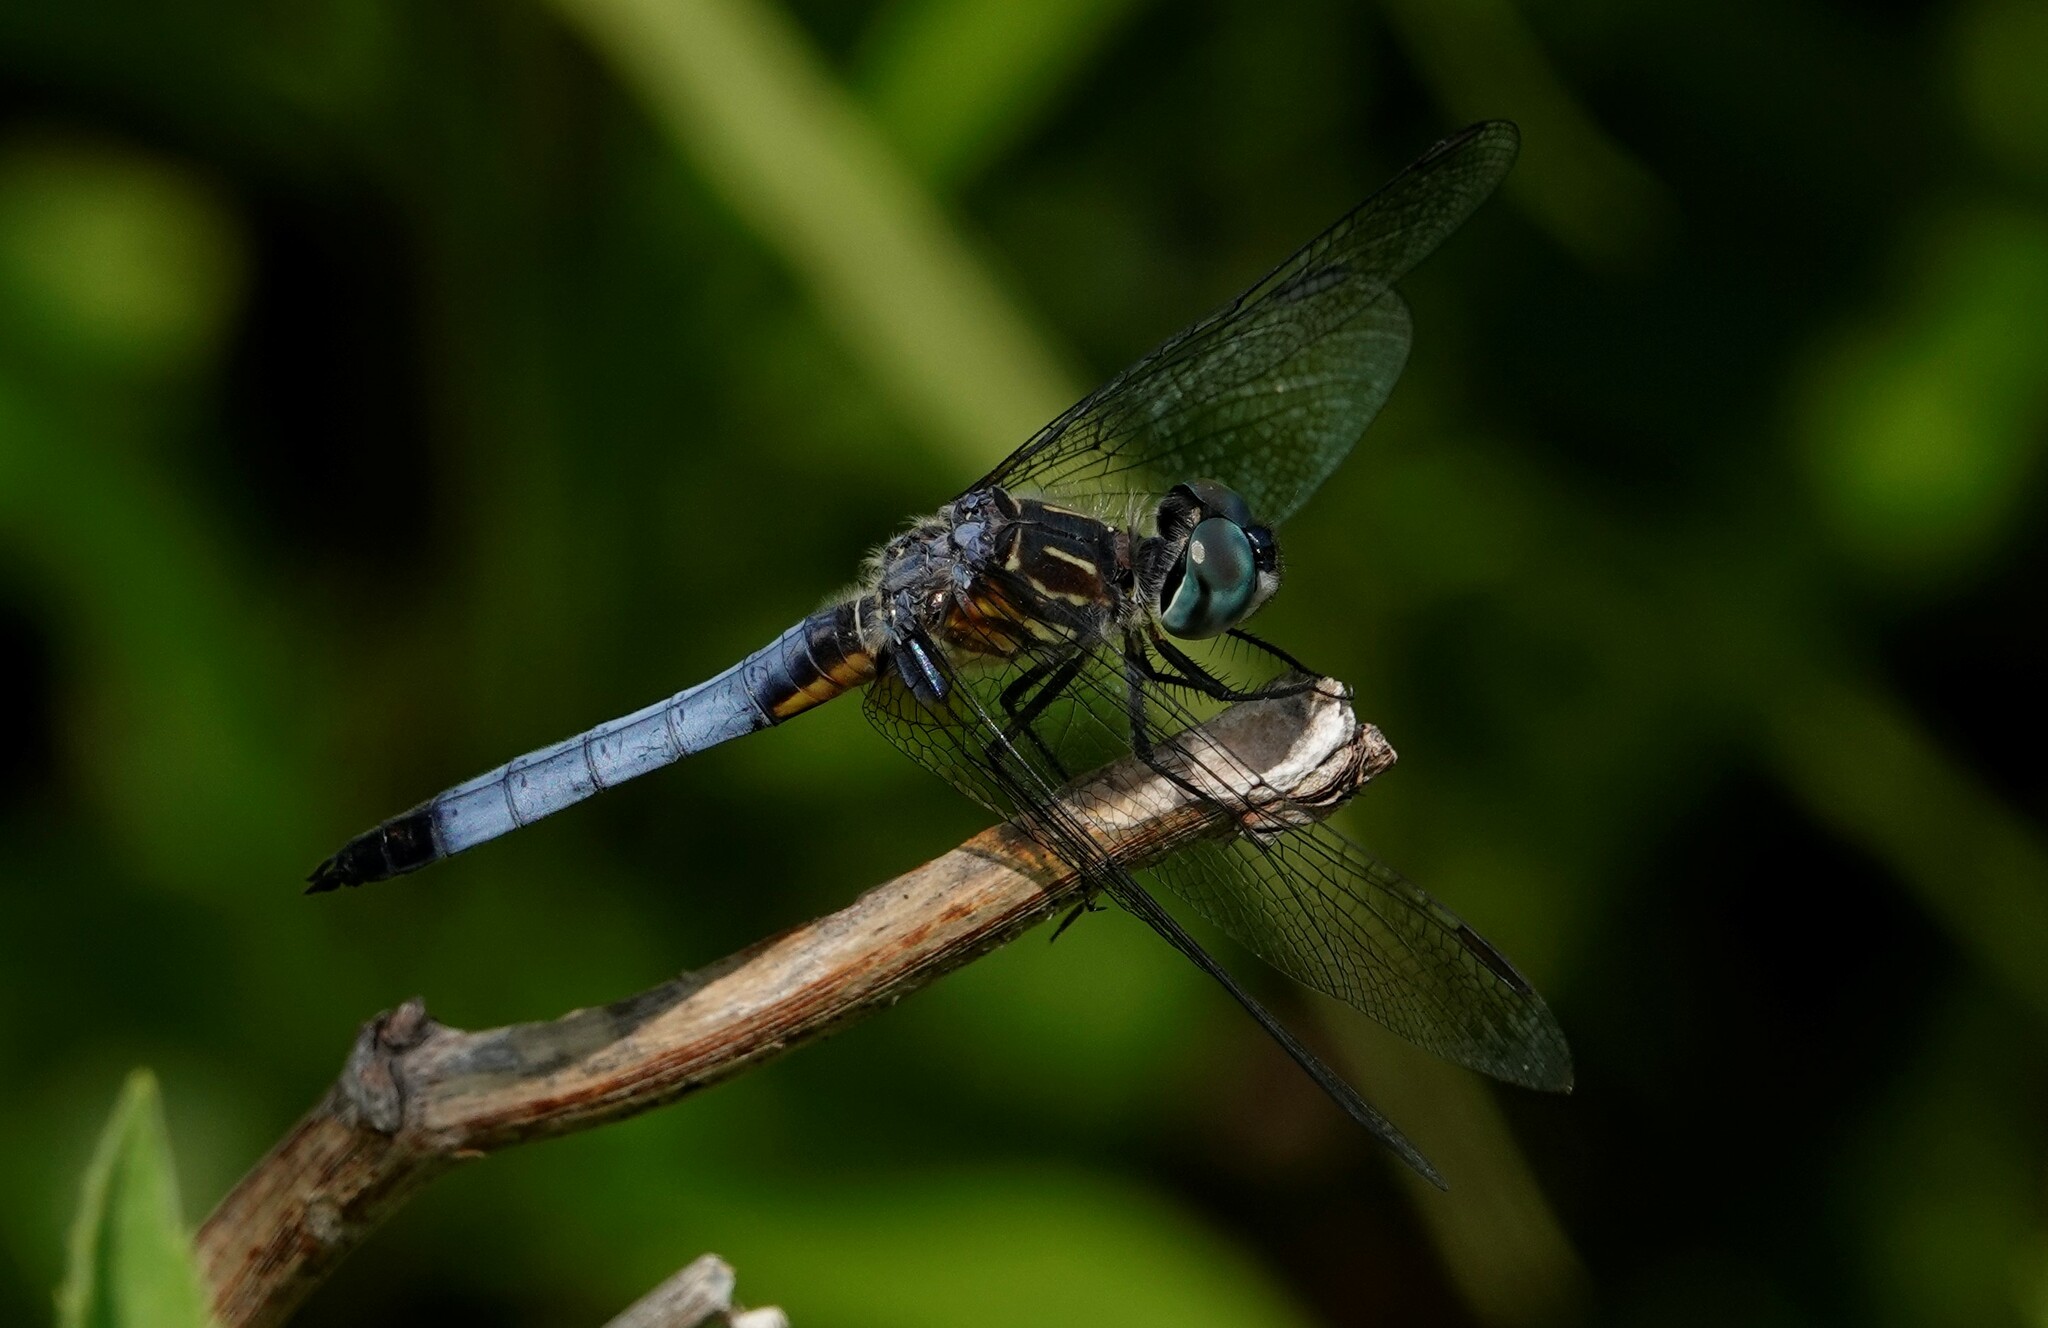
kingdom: Animalia
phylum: Arthropoda
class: Insecta
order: Odonata
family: Libellulidae
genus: Pachydiplax
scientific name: Pachydiplax longipennis
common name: Blue dasher
